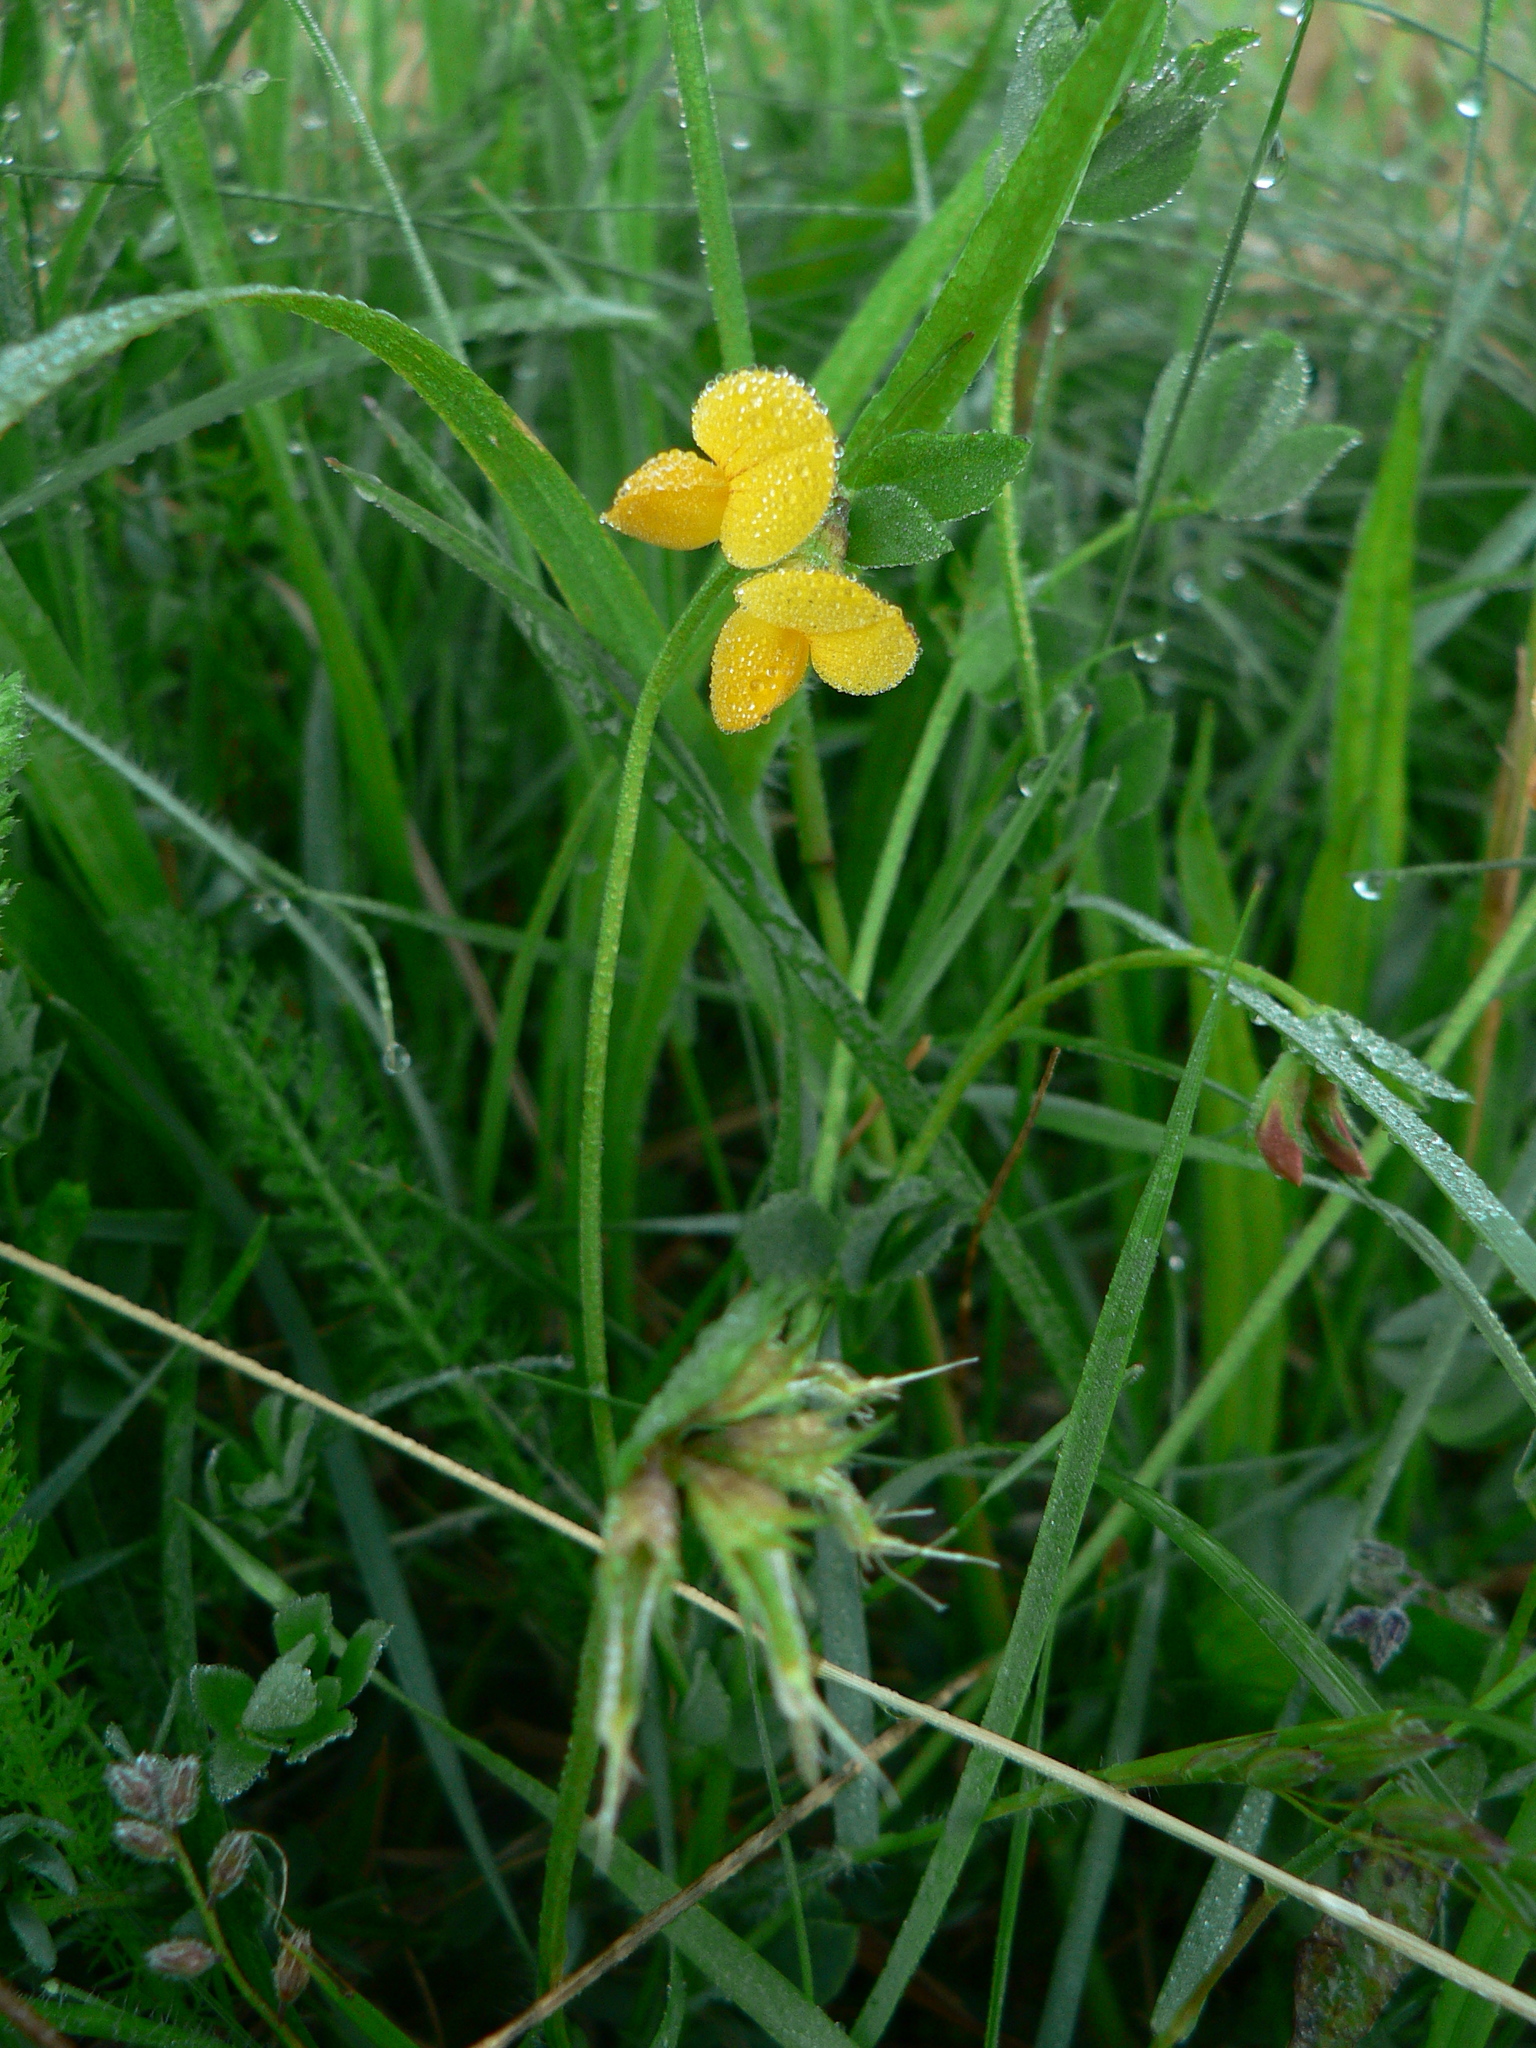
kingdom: Plantae
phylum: Tracheophyta
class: Magnoliopsida
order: Fabales
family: Fabaceae
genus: Lotus
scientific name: Lotus corniculatus
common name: Common bird's-foot-trefoil
